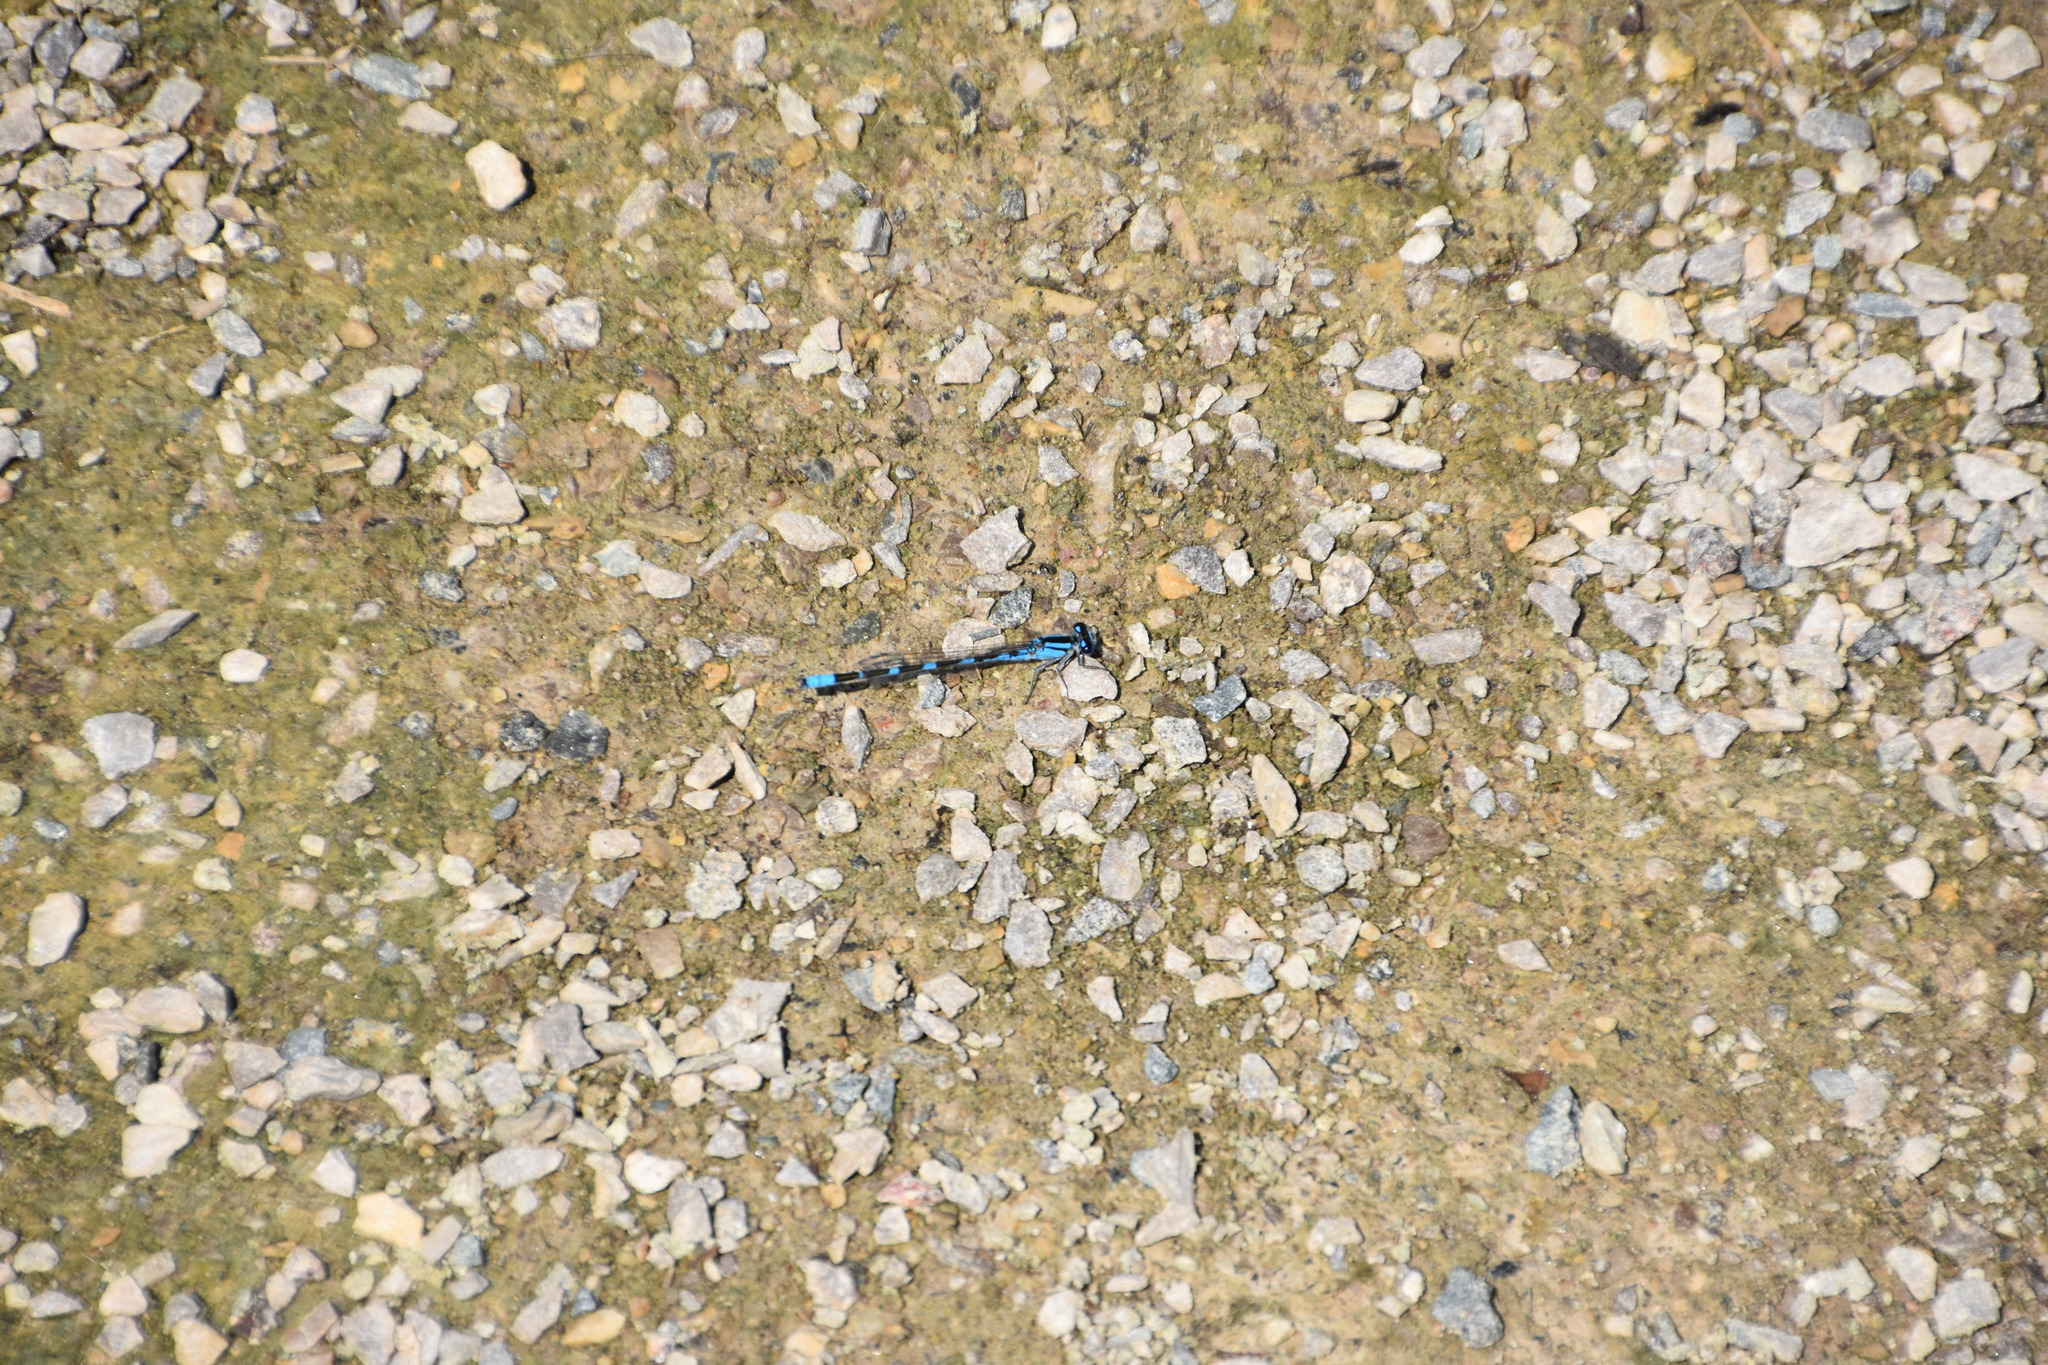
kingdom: Animalia
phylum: Arthropoda
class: Insecta
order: Odonata
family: Coenagrionidae
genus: Enallagma
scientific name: Enallagma carunculatum
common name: Tule bluet
